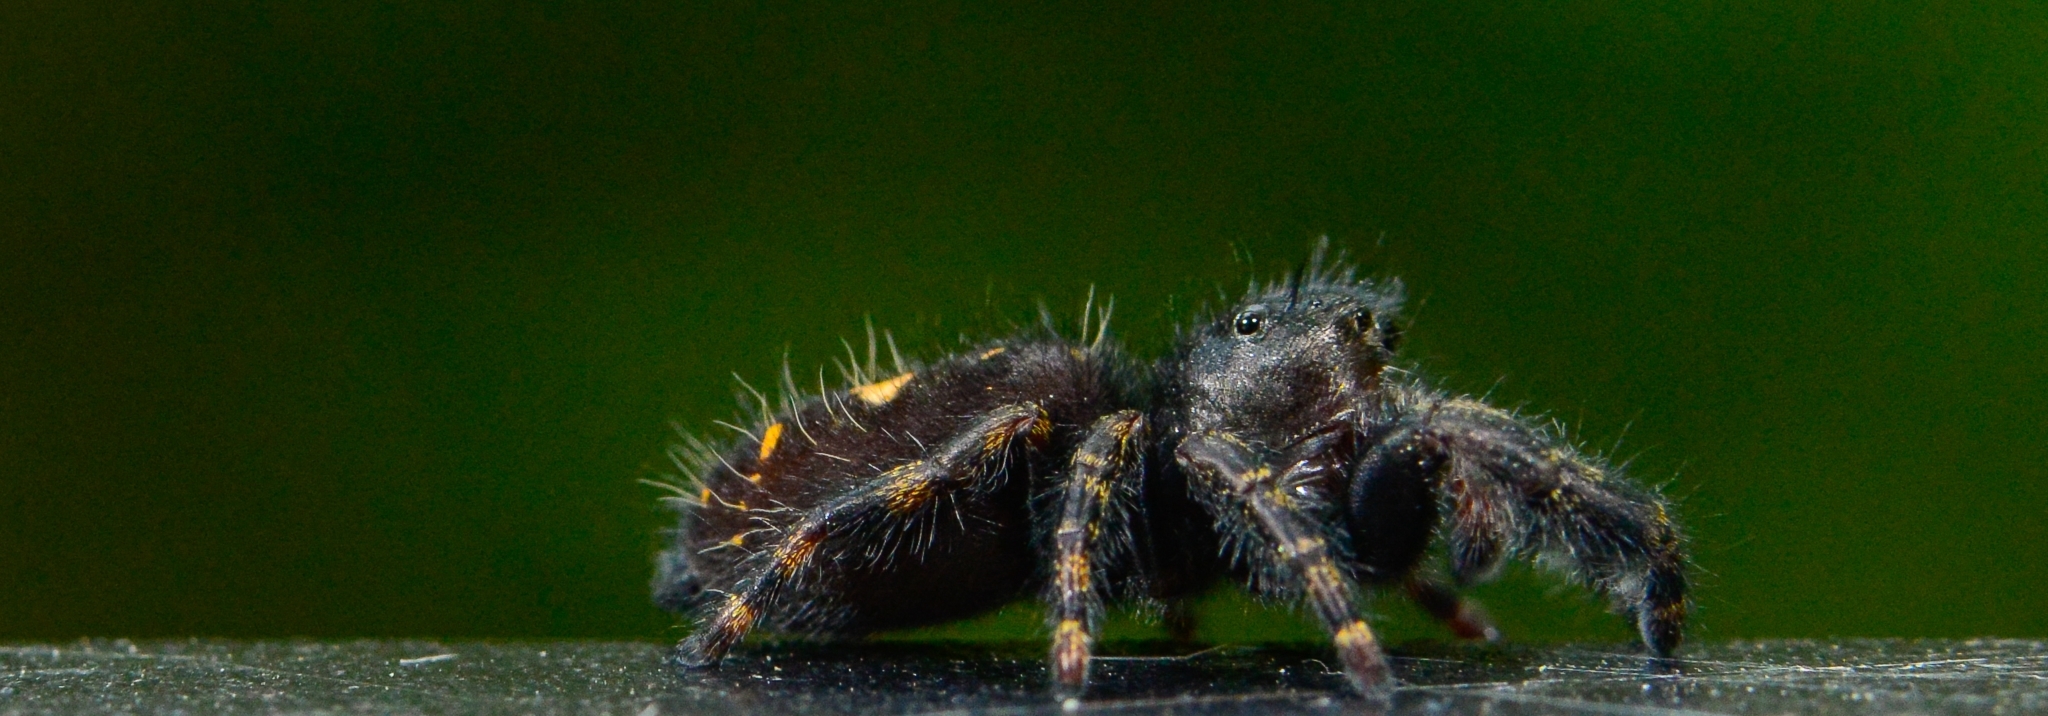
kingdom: Animalia
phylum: Arthropoda
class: Arachnida
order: Araneae
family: Salticidae
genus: Phidippus
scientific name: Phidippus audax
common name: Bold jumper
